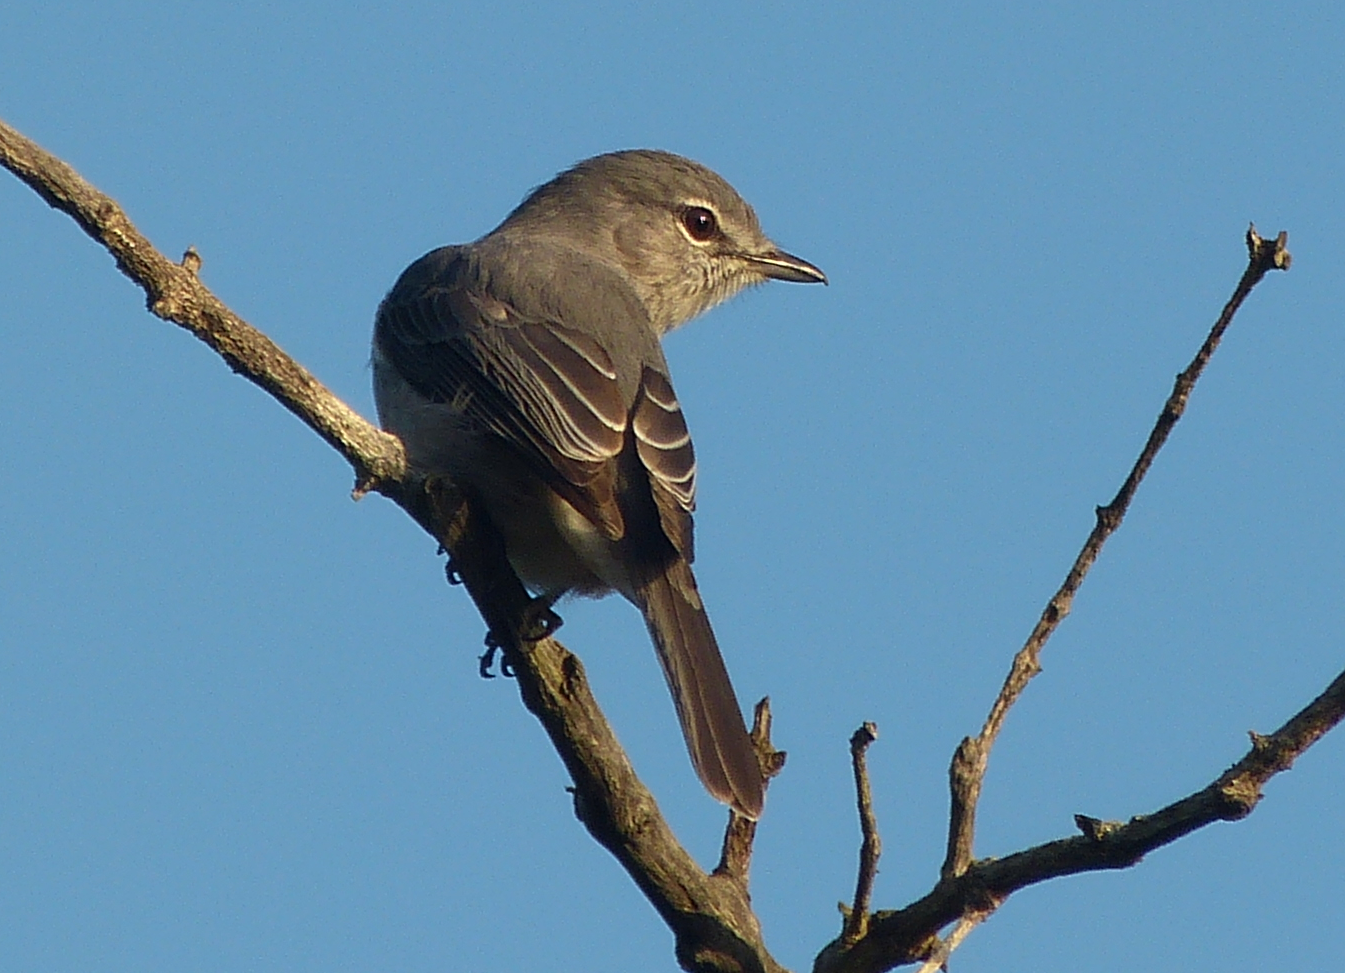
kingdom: Animalia
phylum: Chordata
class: Aves
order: Passeriformes
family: Muscicapidae
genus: Muscicapa
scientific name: Muscicapa caerulescens
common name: Ashy flycatcher
